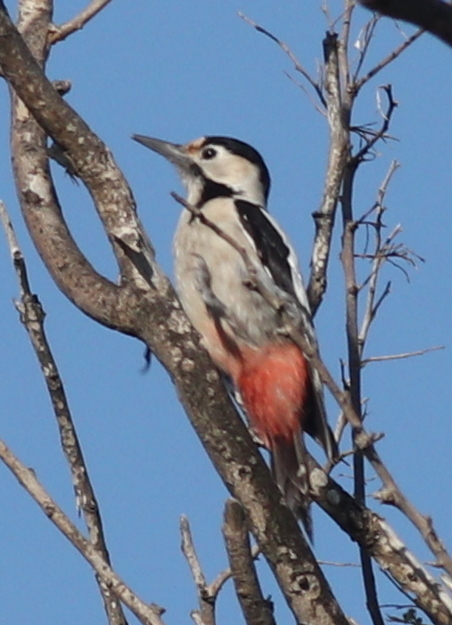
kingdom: Animalia
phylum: Chordata
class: Aves
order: Piciformes
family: Picidae
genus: Dendrocopos
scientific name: Dendrocopos syriacus
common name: Syrian woodpecker
